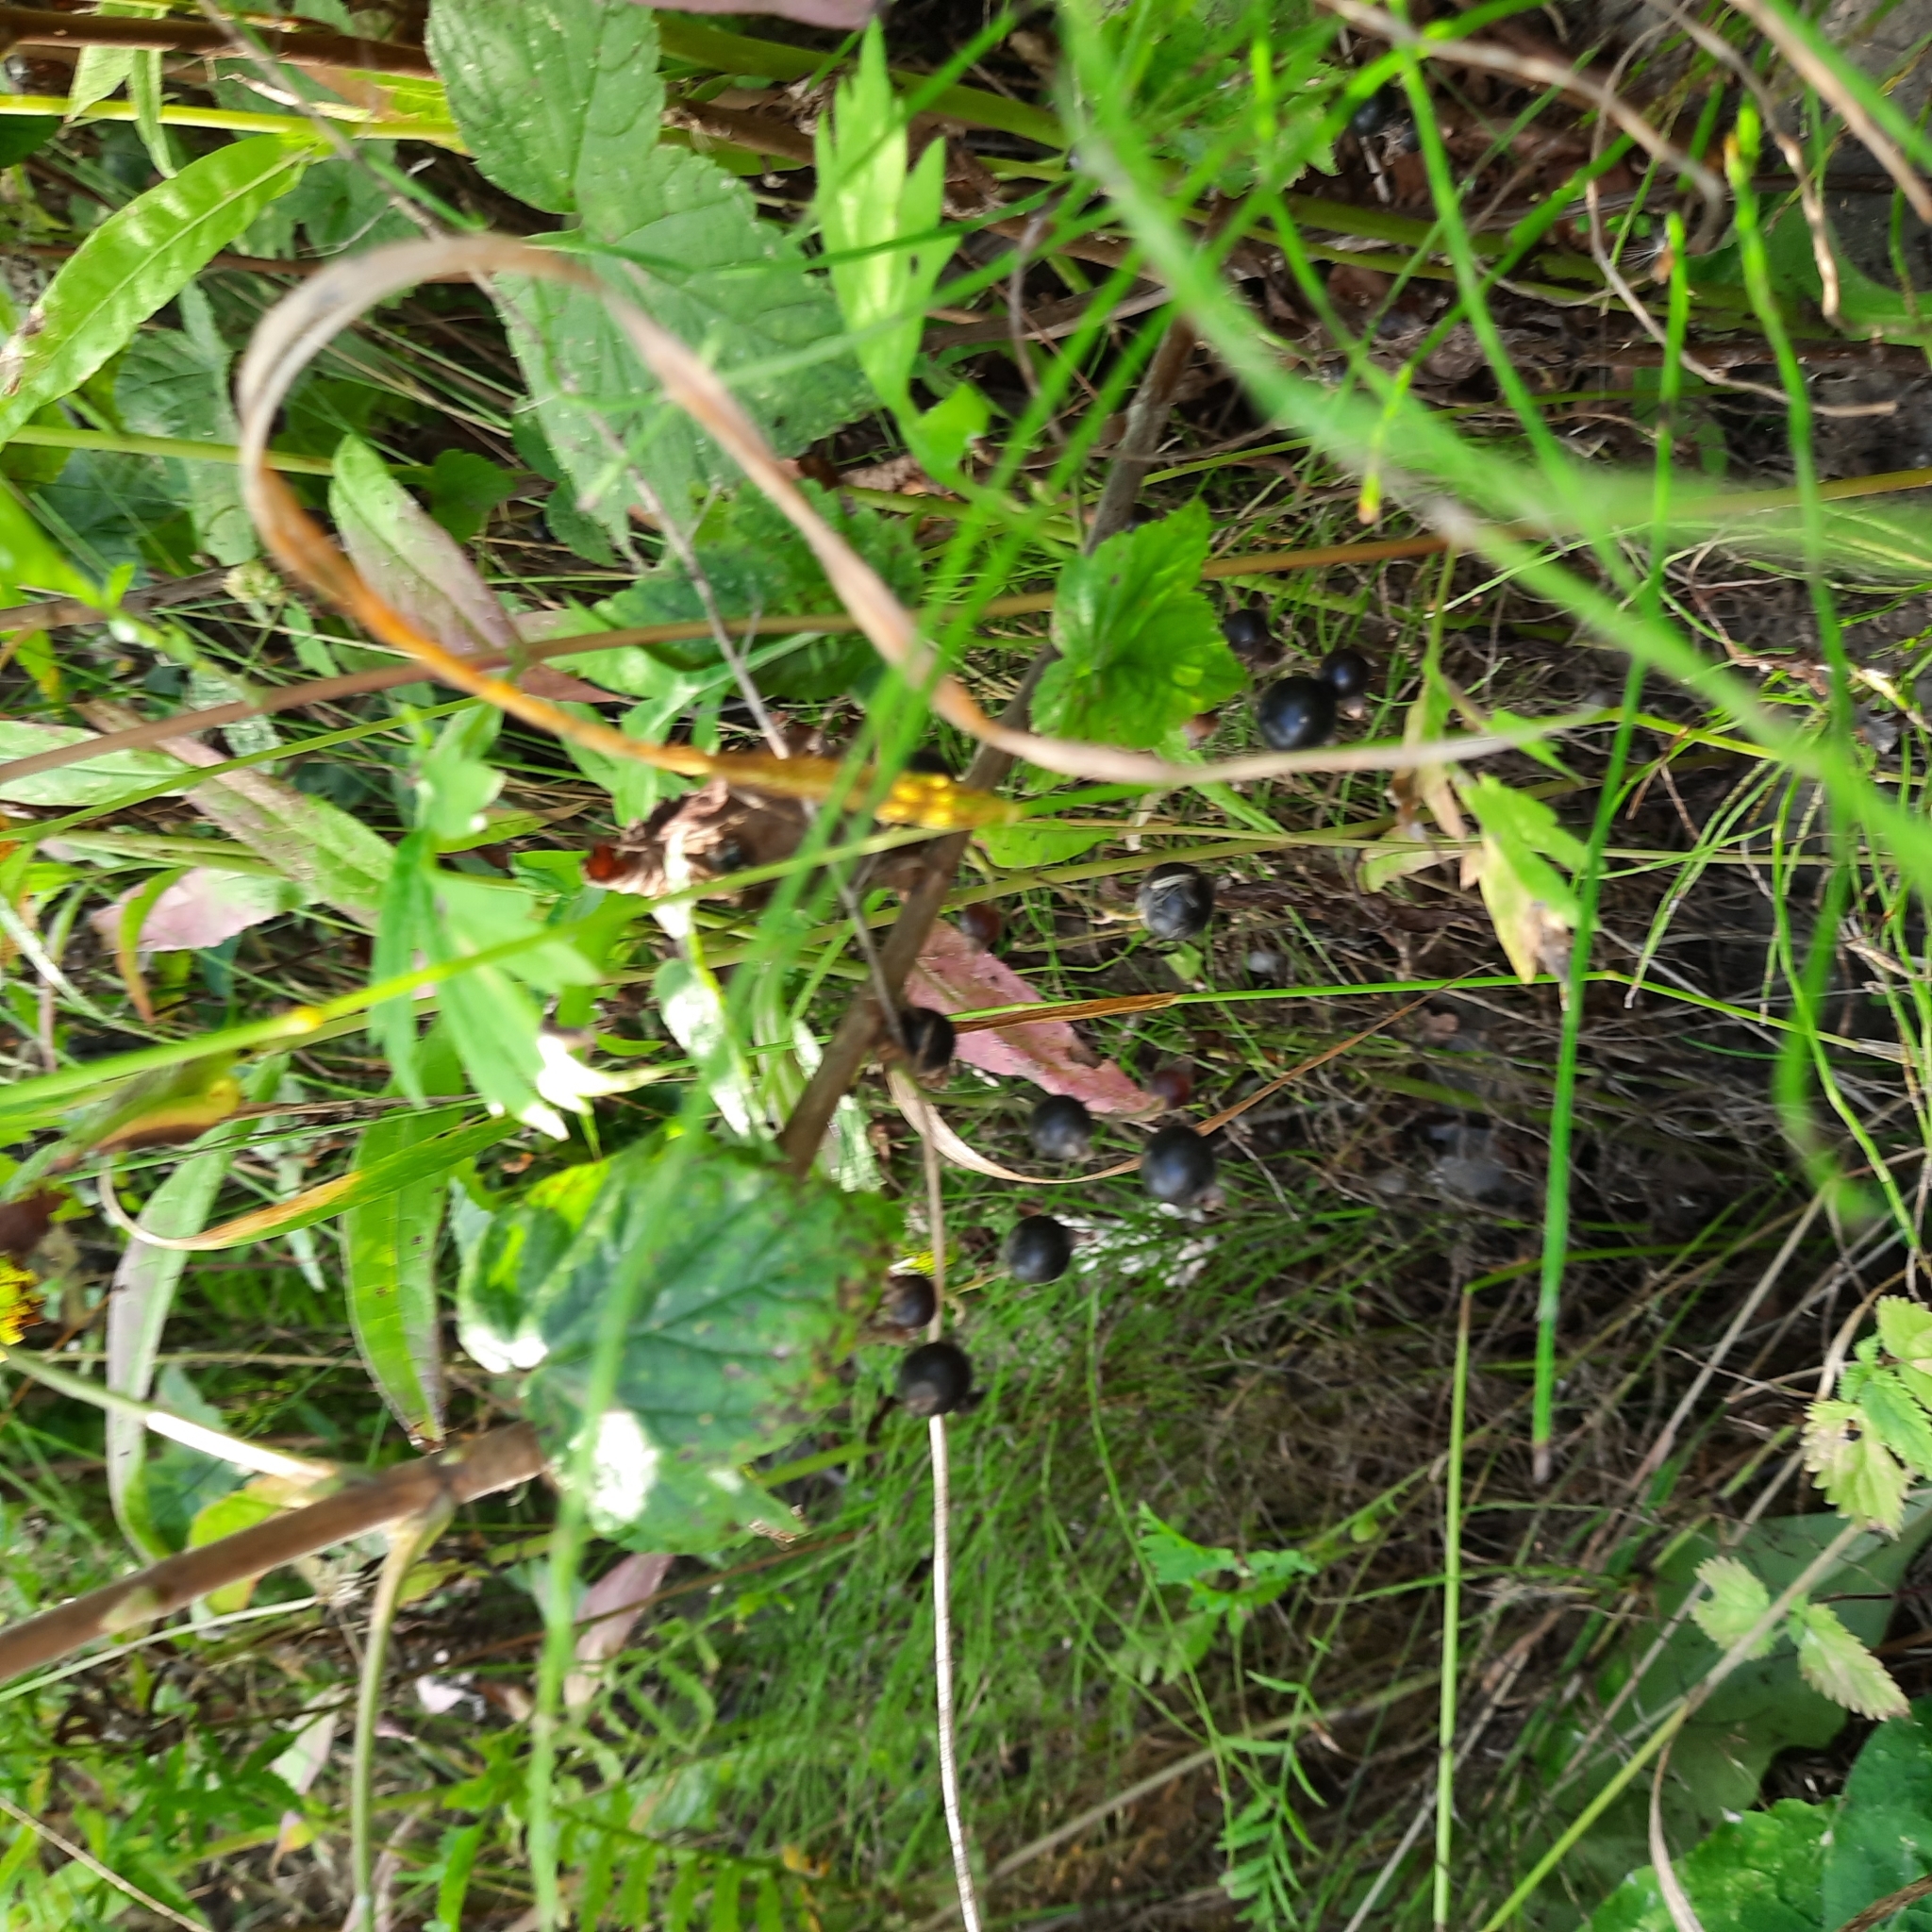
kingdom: Plantae
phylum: Tracheophyta
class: Magnoliopsida
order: Saxifragales
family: Grossulariaceae
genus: Ribes
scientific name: Ribes nigrum
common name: Black currant
